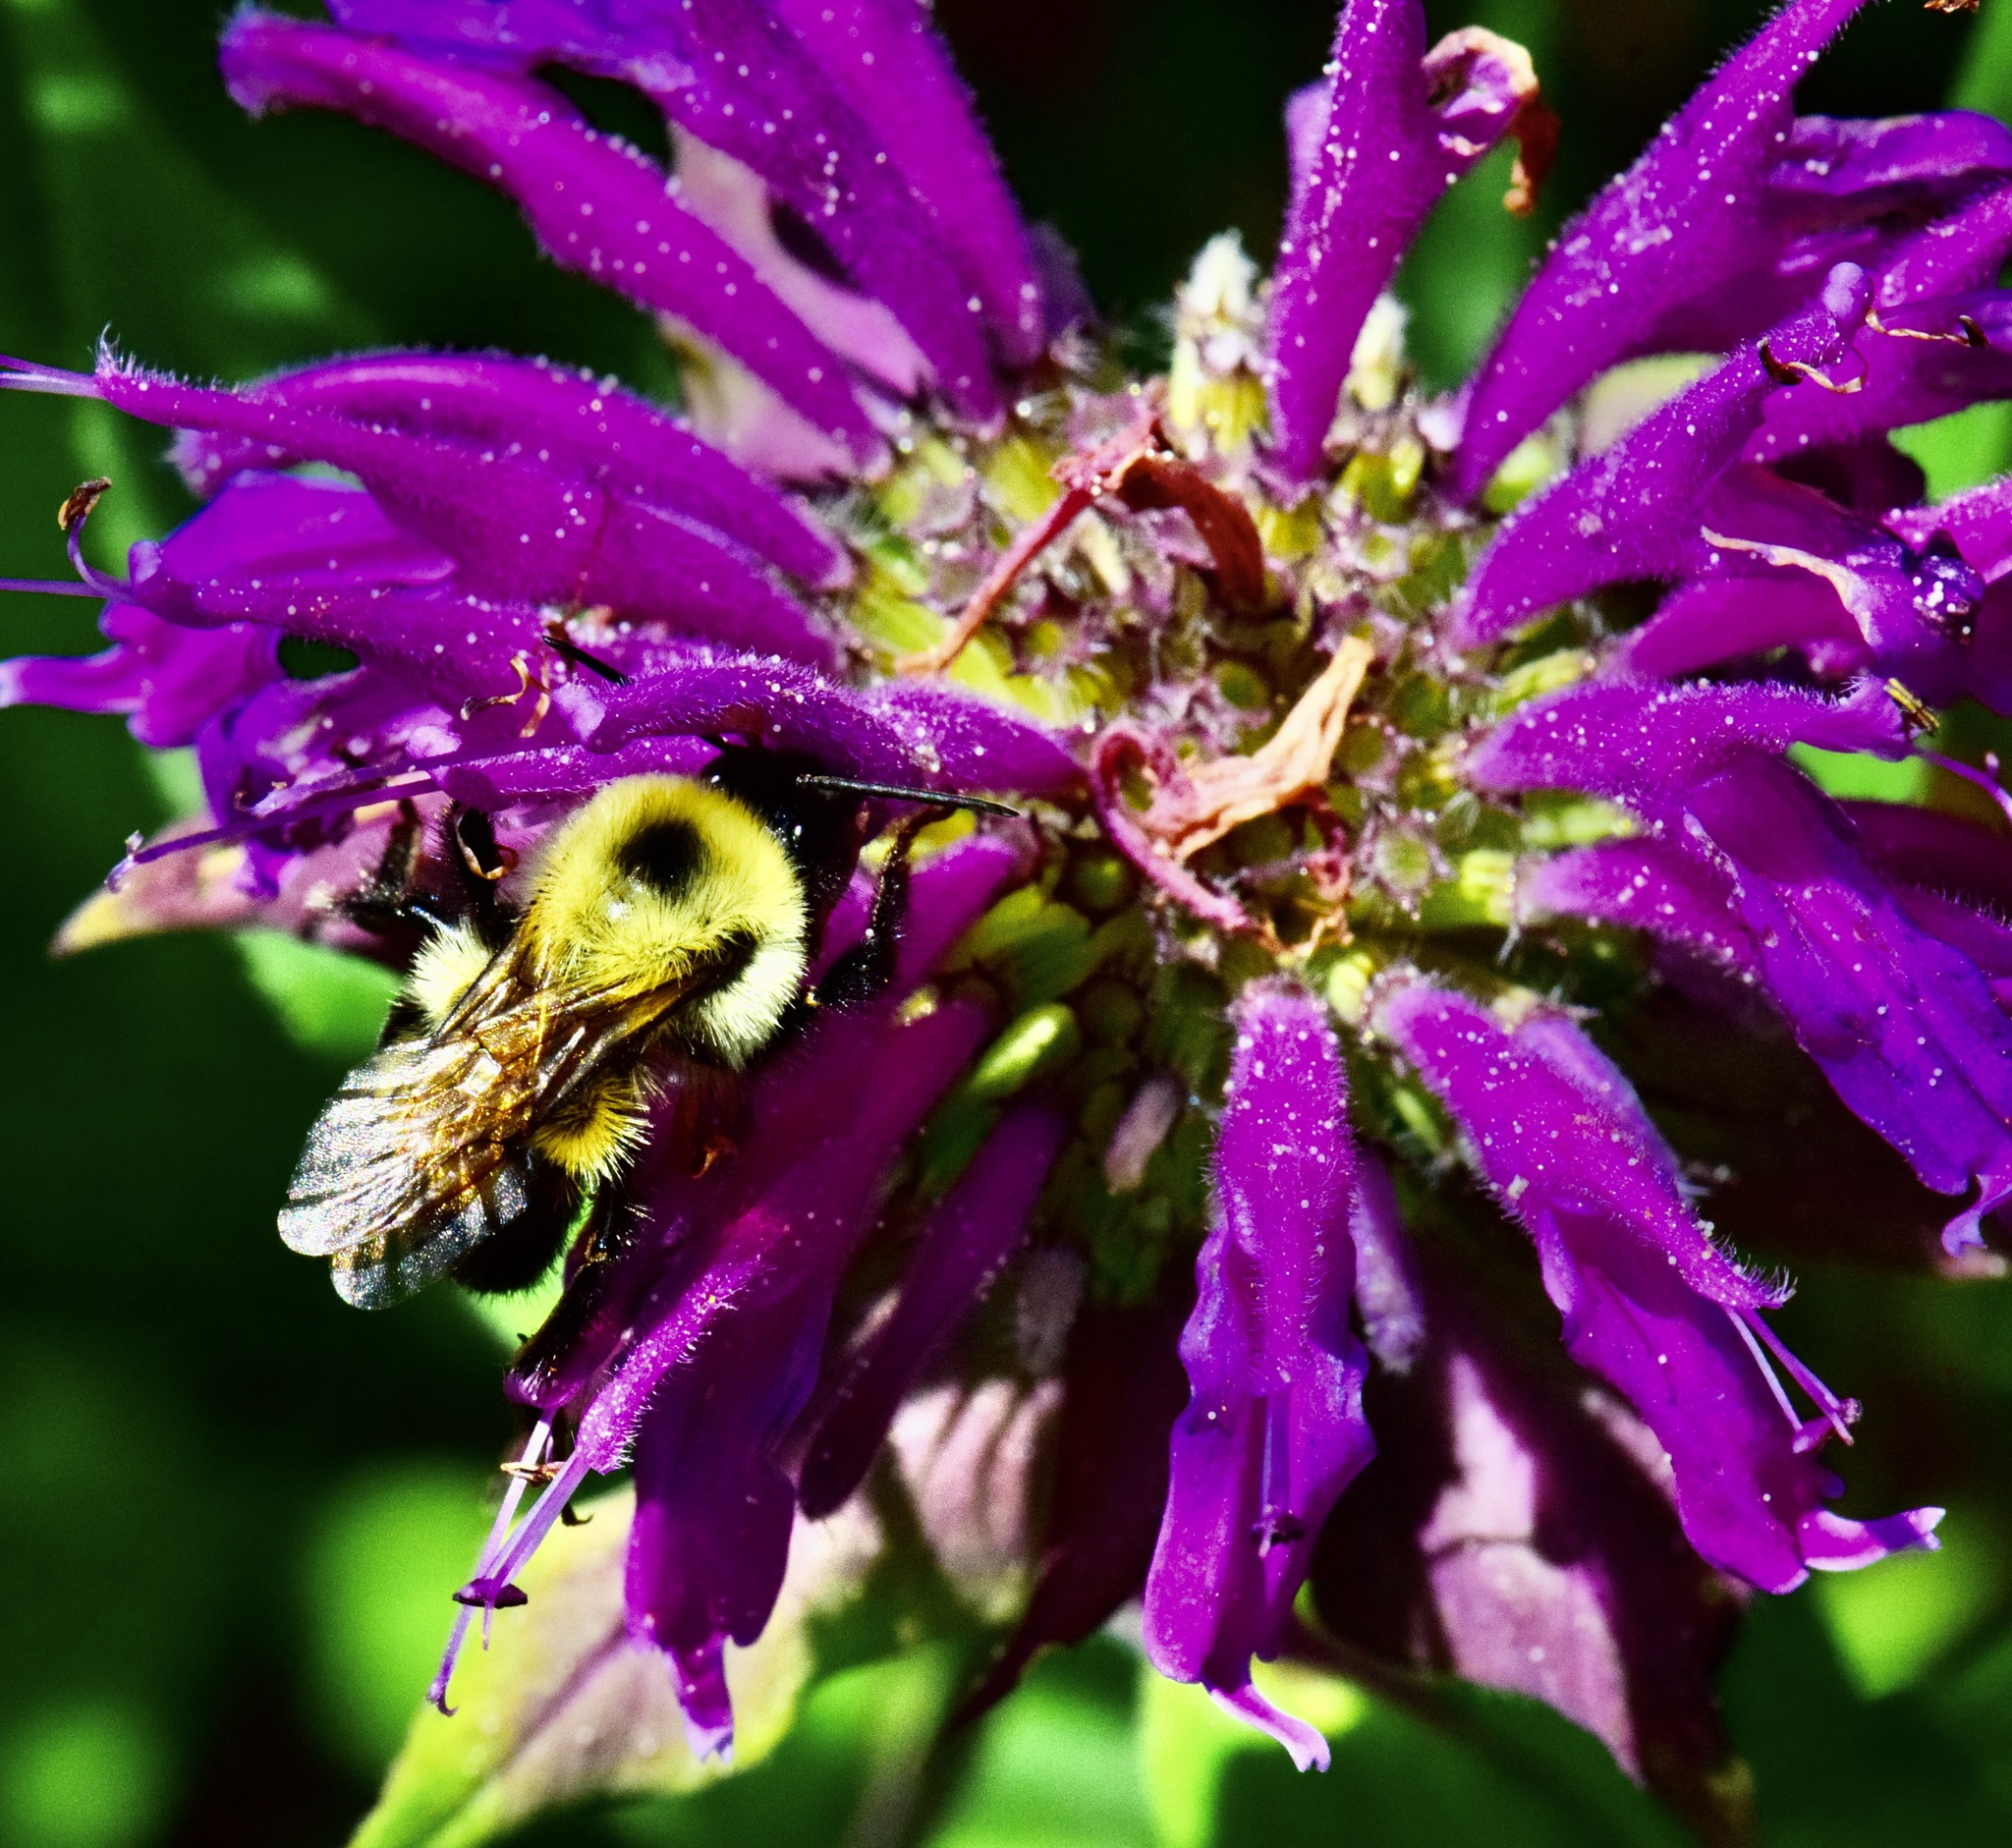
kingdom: Animalia
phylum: Arthropoda
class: Insecta
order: Hymenoptera
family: Apidae
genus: Bombus
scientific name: Bombus bimaculatus
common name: Two-spotted bumble bee
